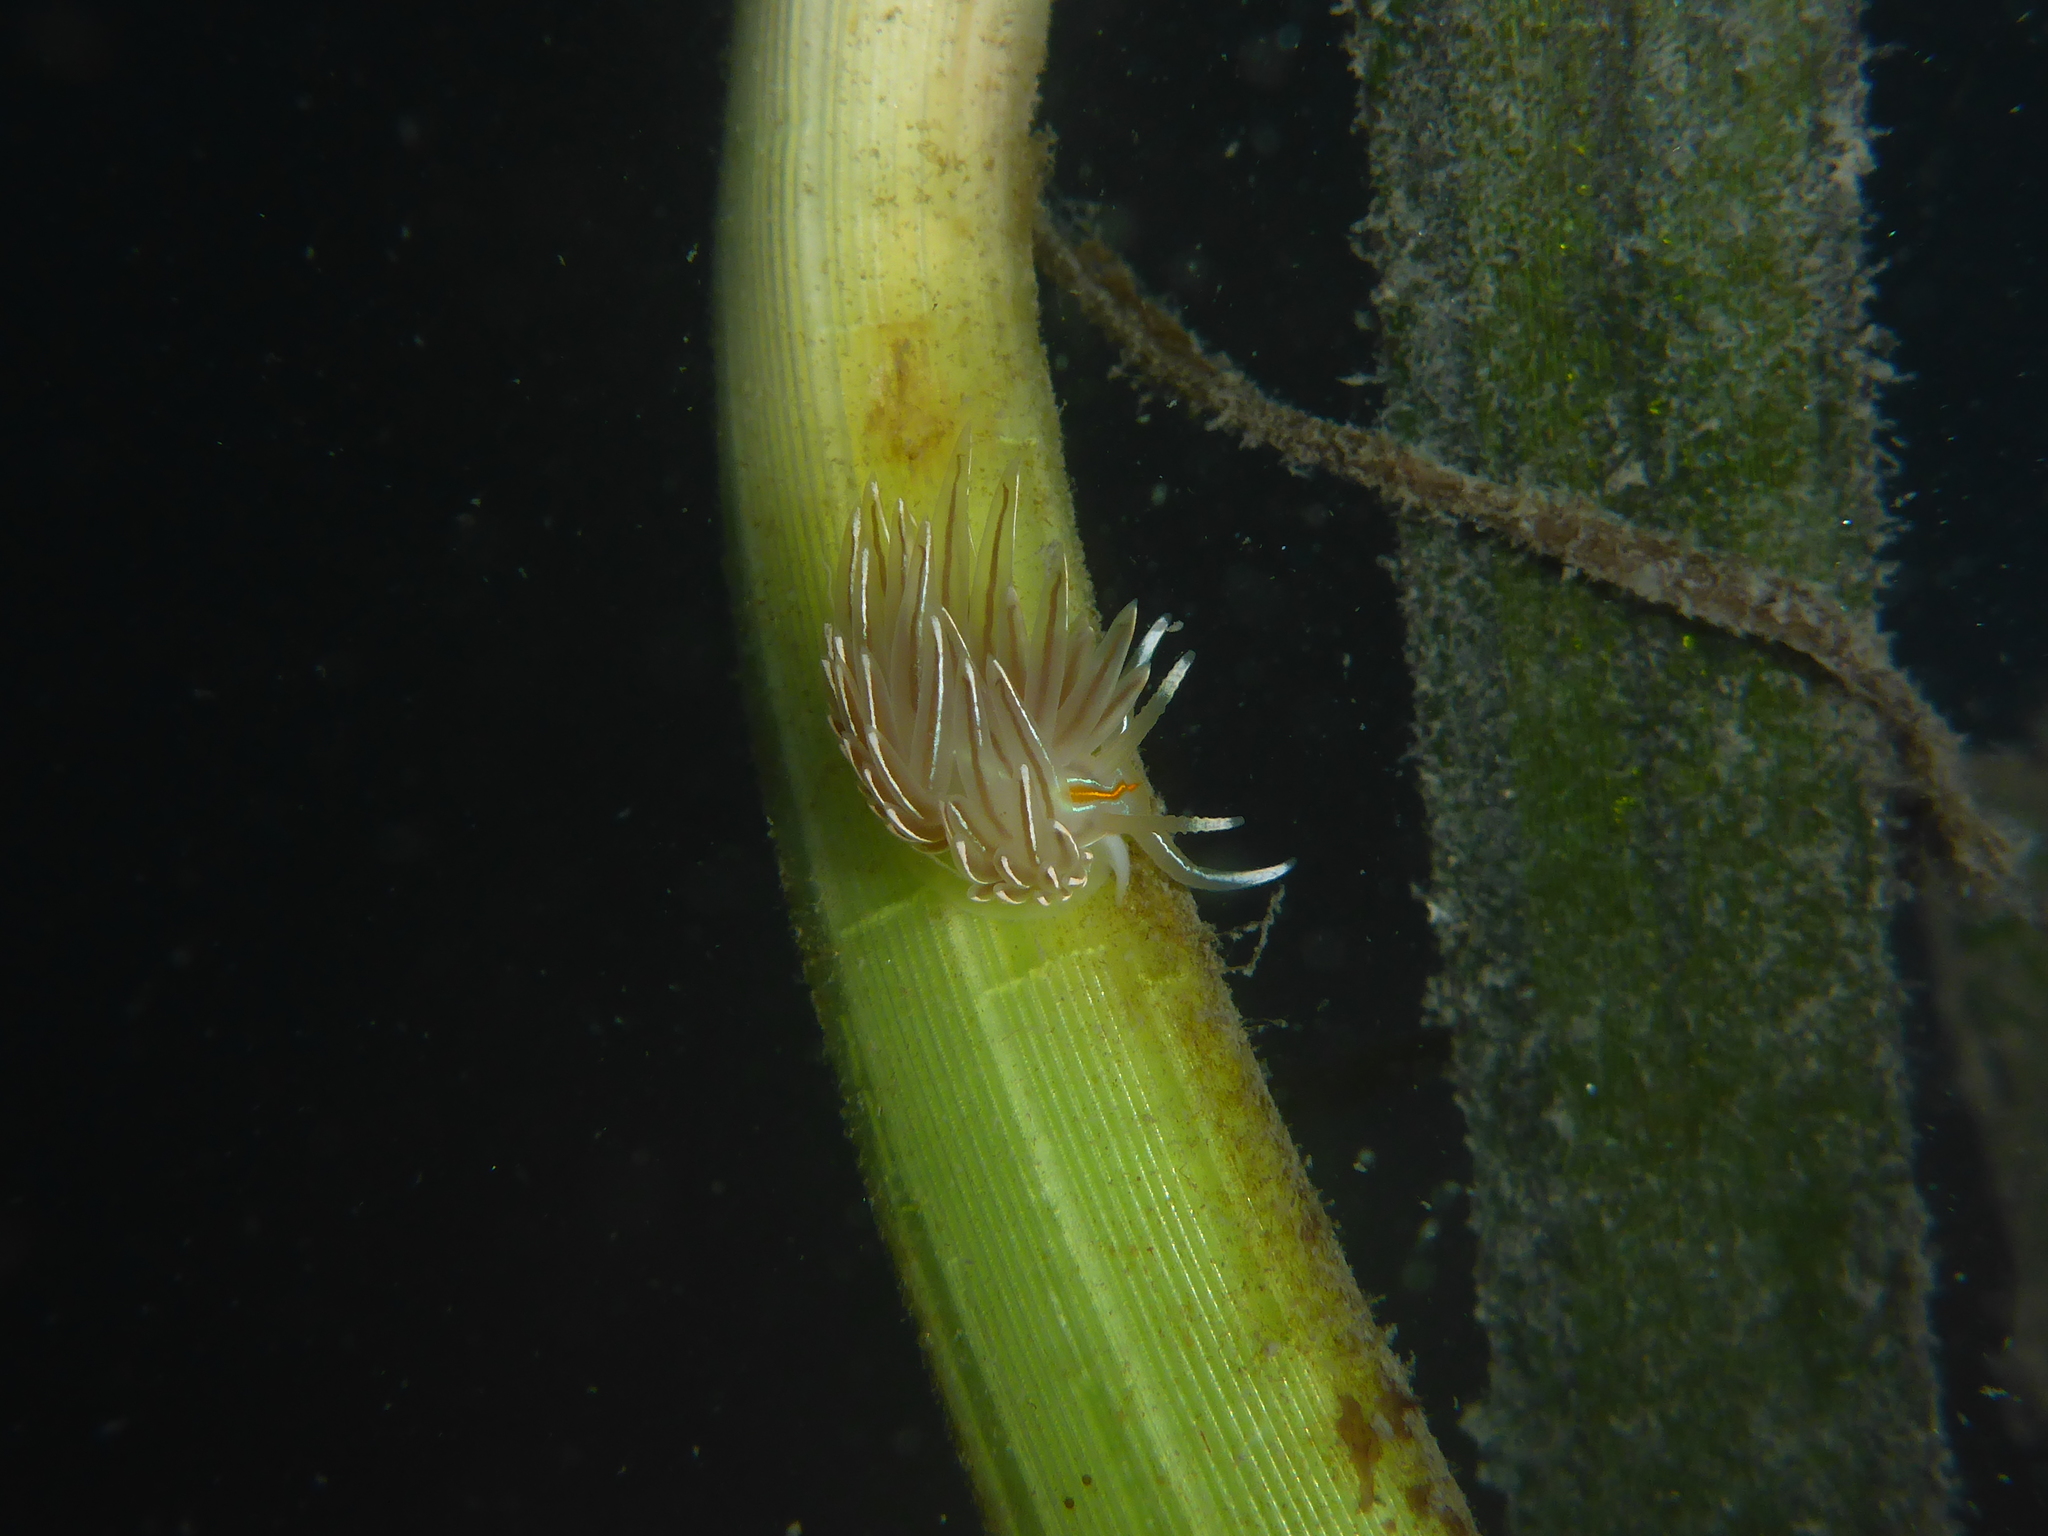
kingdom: Animalia
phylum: Mollusca
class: Gastropoda
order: Nudibranchia
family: Myrrhinidae
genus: Hermissenda
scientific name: Hermissenda crassicornis
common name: Hermissenda
